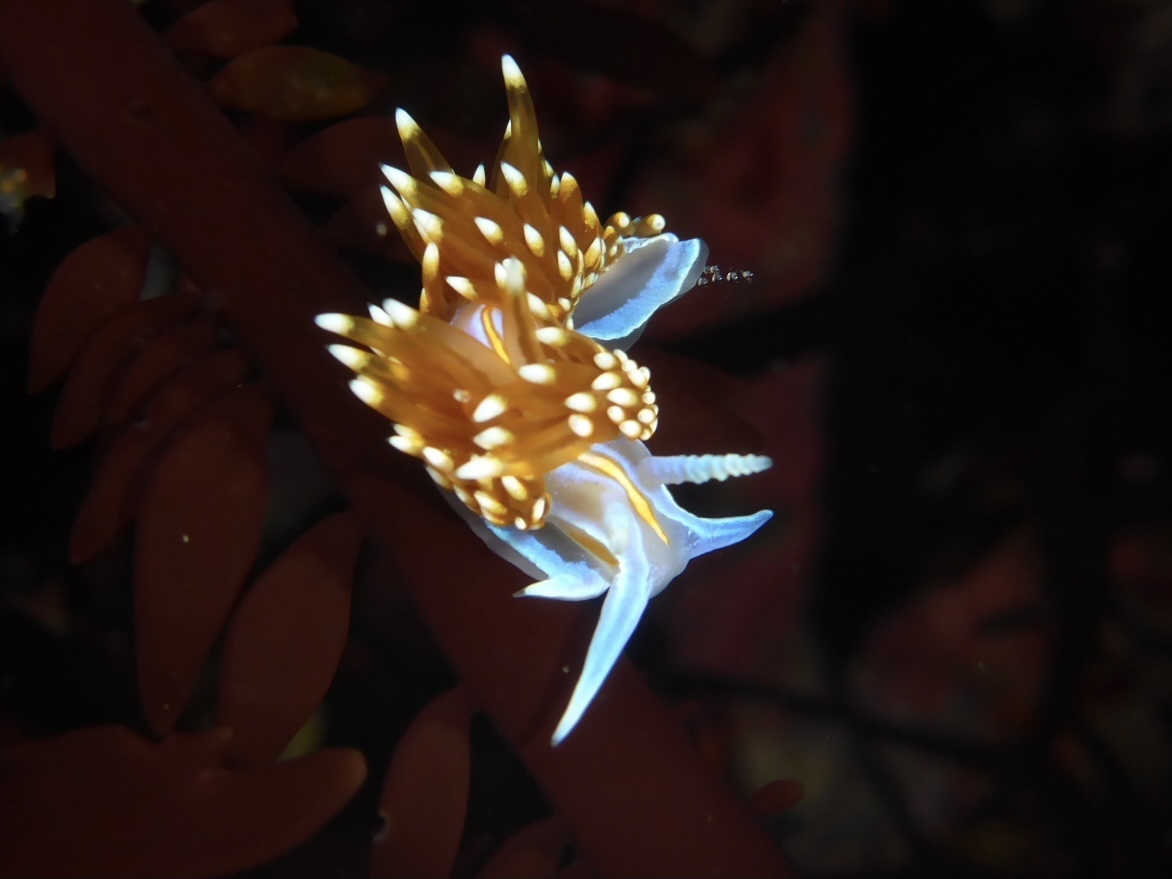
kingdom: Animalia
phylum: Mollusca
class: Gastropoda
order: Nudibranchia
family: Myrrhinidae
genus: Hermissenda
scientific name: Hermissenda opalescens
